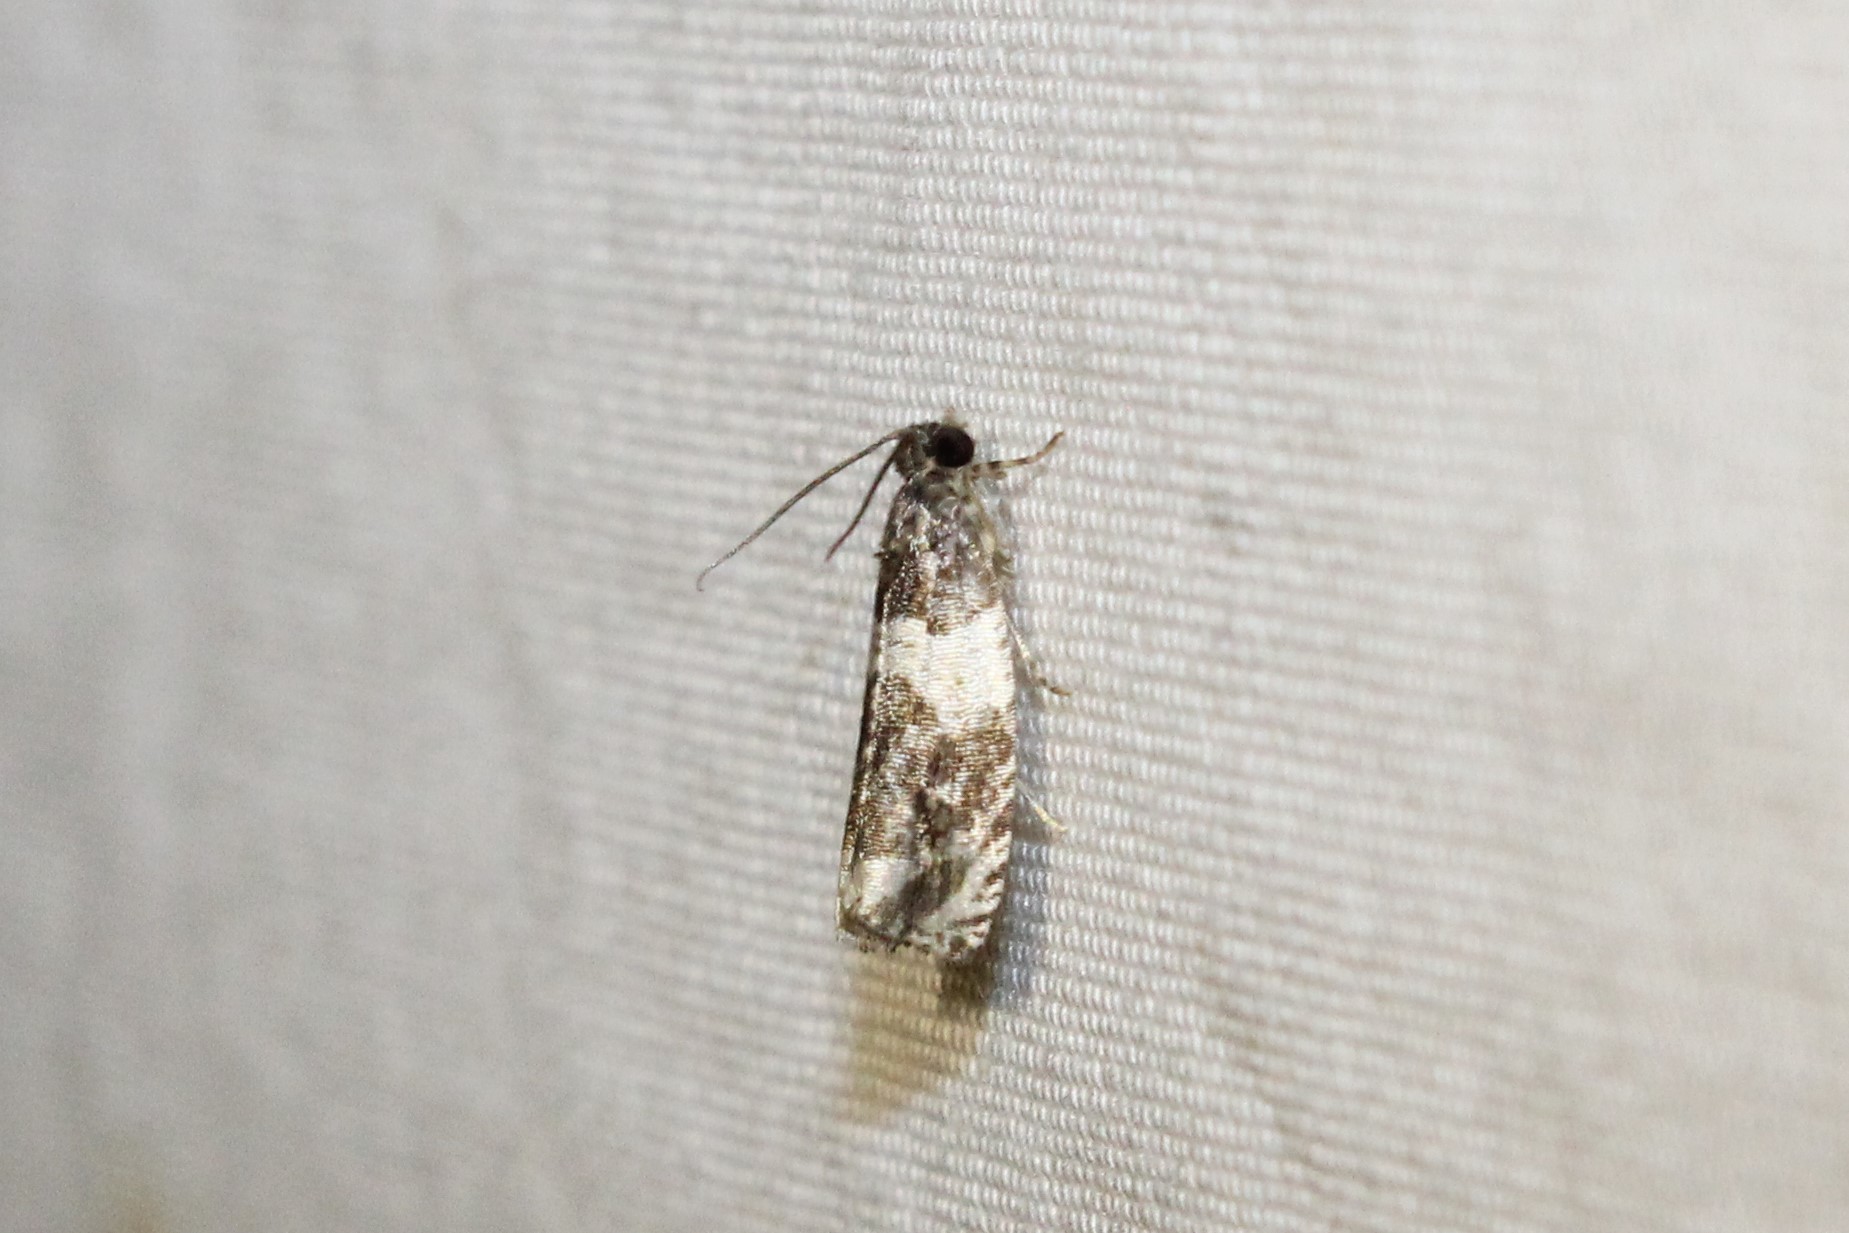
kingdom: Animalia
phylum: Arthropoda
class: Insecta
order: Lepidoptera
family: Tortricidae
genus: Olethreutes
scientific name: Olethreutes fasciatana
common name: Banded olethreutes moth
